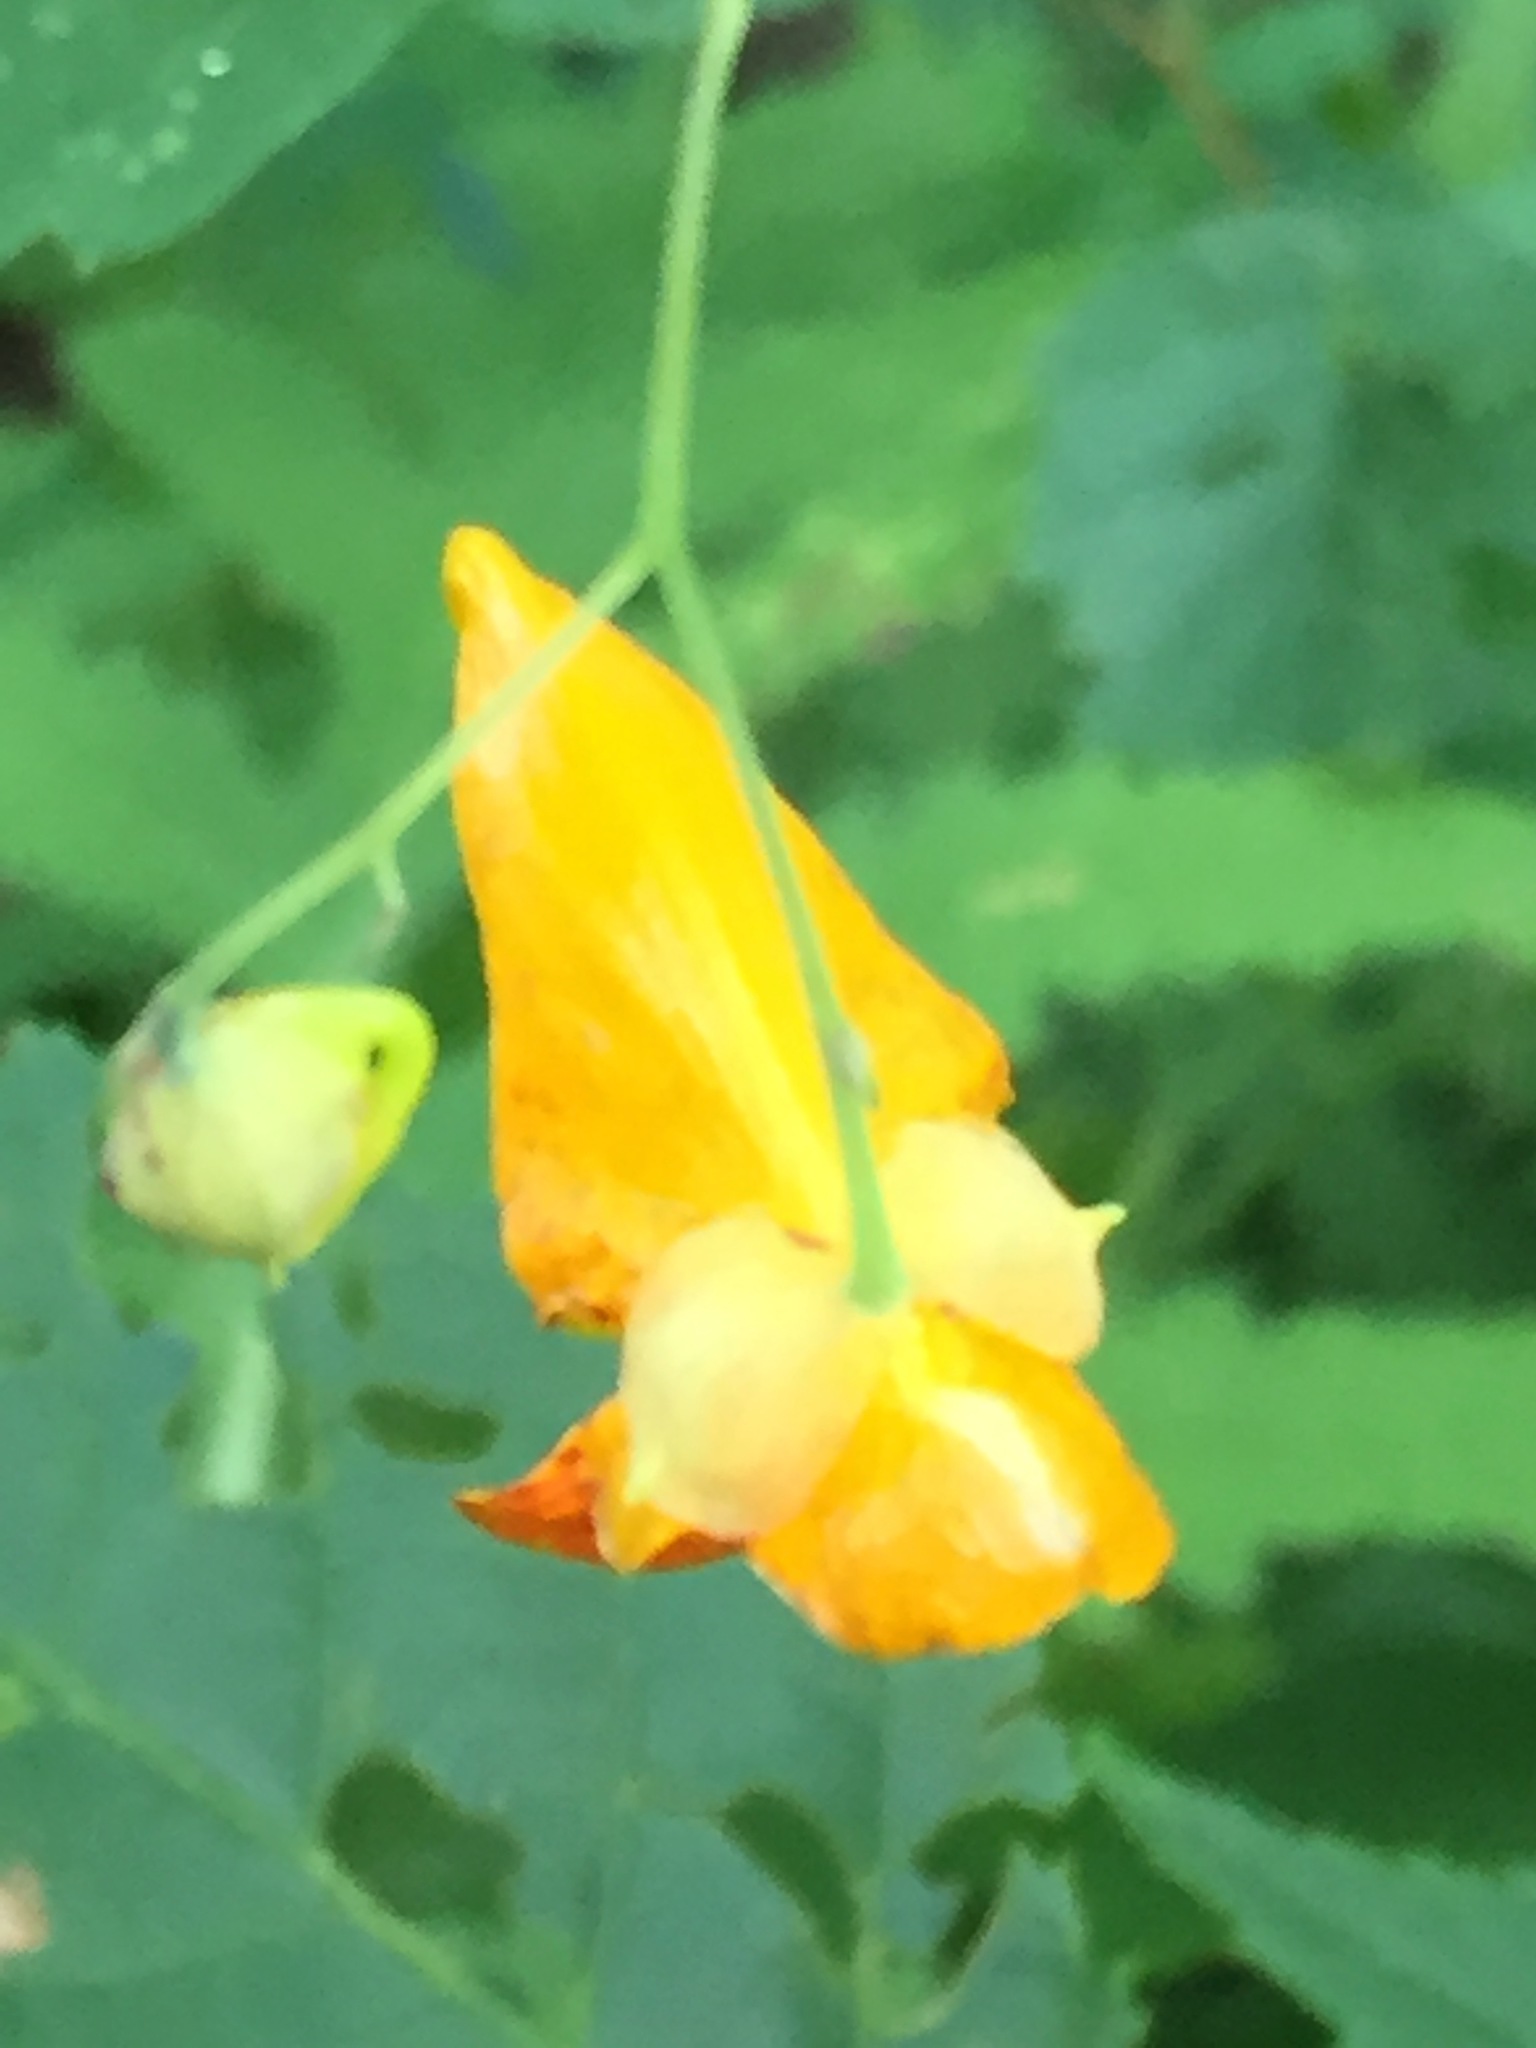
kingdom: Plantae
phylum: Tracheophyta
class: Magnoliopsida
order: Ericales
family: Balsaminaceae
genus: Impatiens
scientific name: Impatiens capensis
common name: Orange balsam
